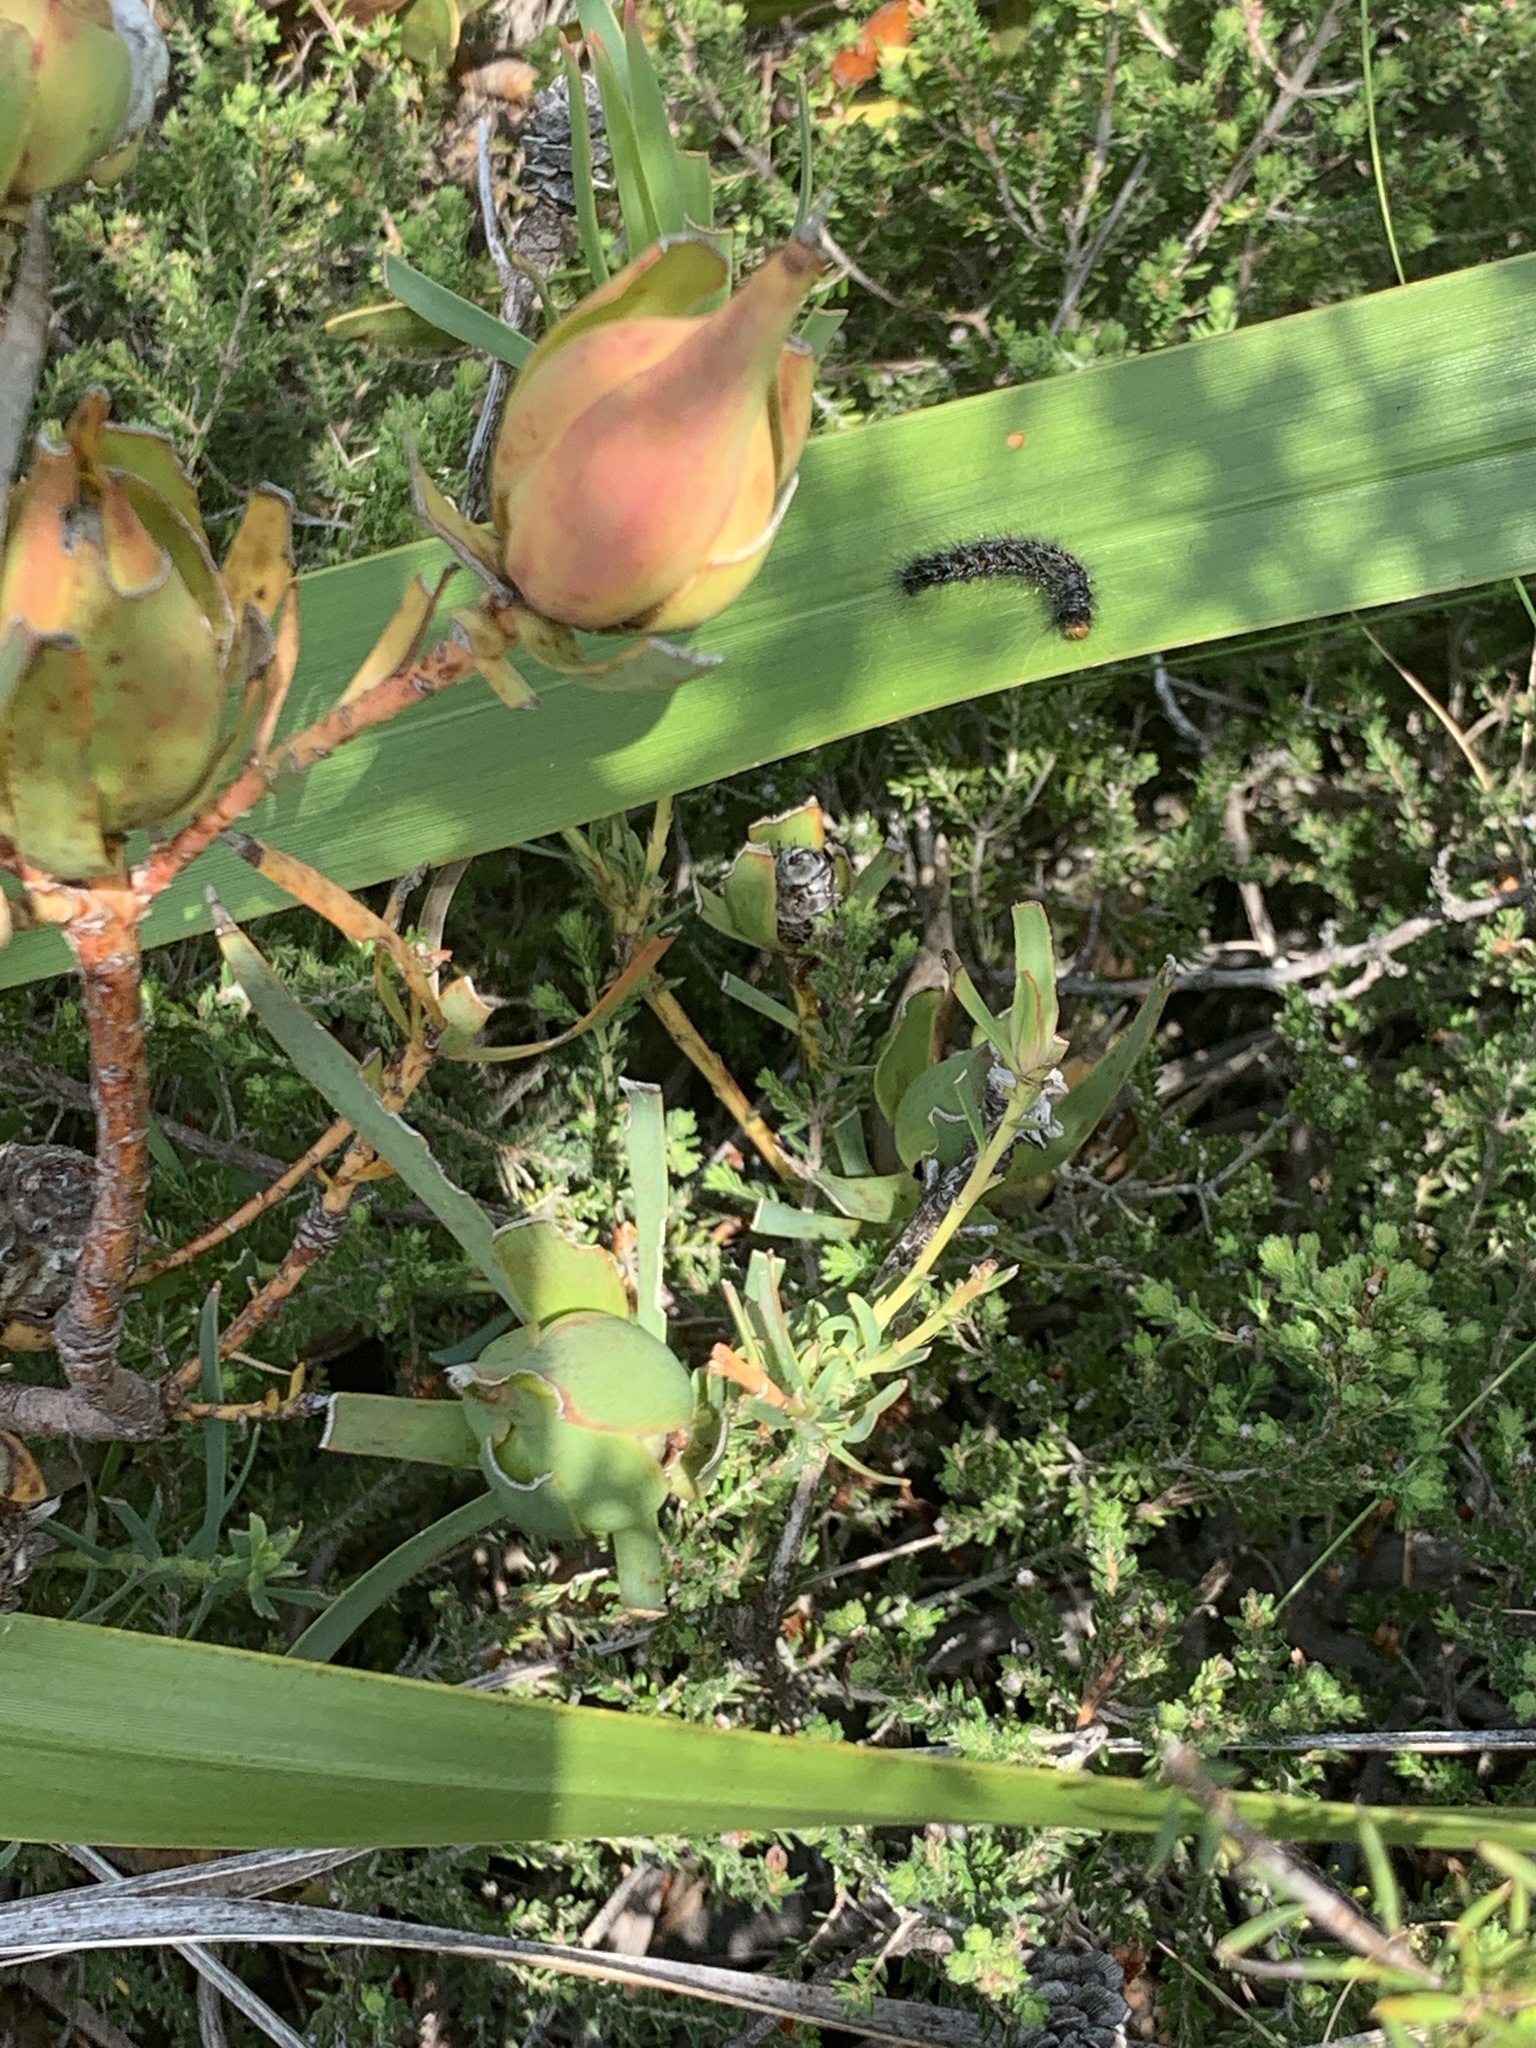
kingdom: Plantae
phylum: Tracheophyta
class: Magnoliopsida
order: Proteales
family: Proteaceae
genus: Leucadendron
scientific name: Leucadendron salignum
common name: Common sunshine conebush
